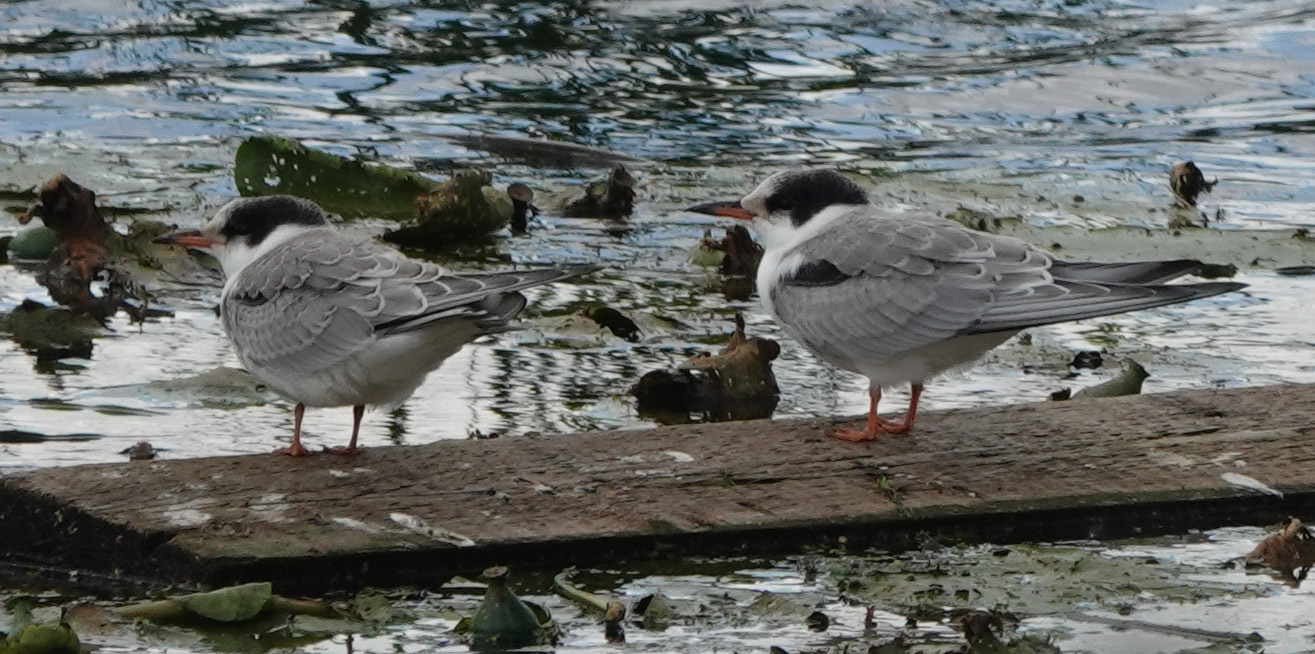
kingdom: Animalia
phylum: Chordata
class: Aves
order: Charadriiformes
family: Laridae
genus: Sterna
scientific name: Sterna hirundo
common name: Common tern
